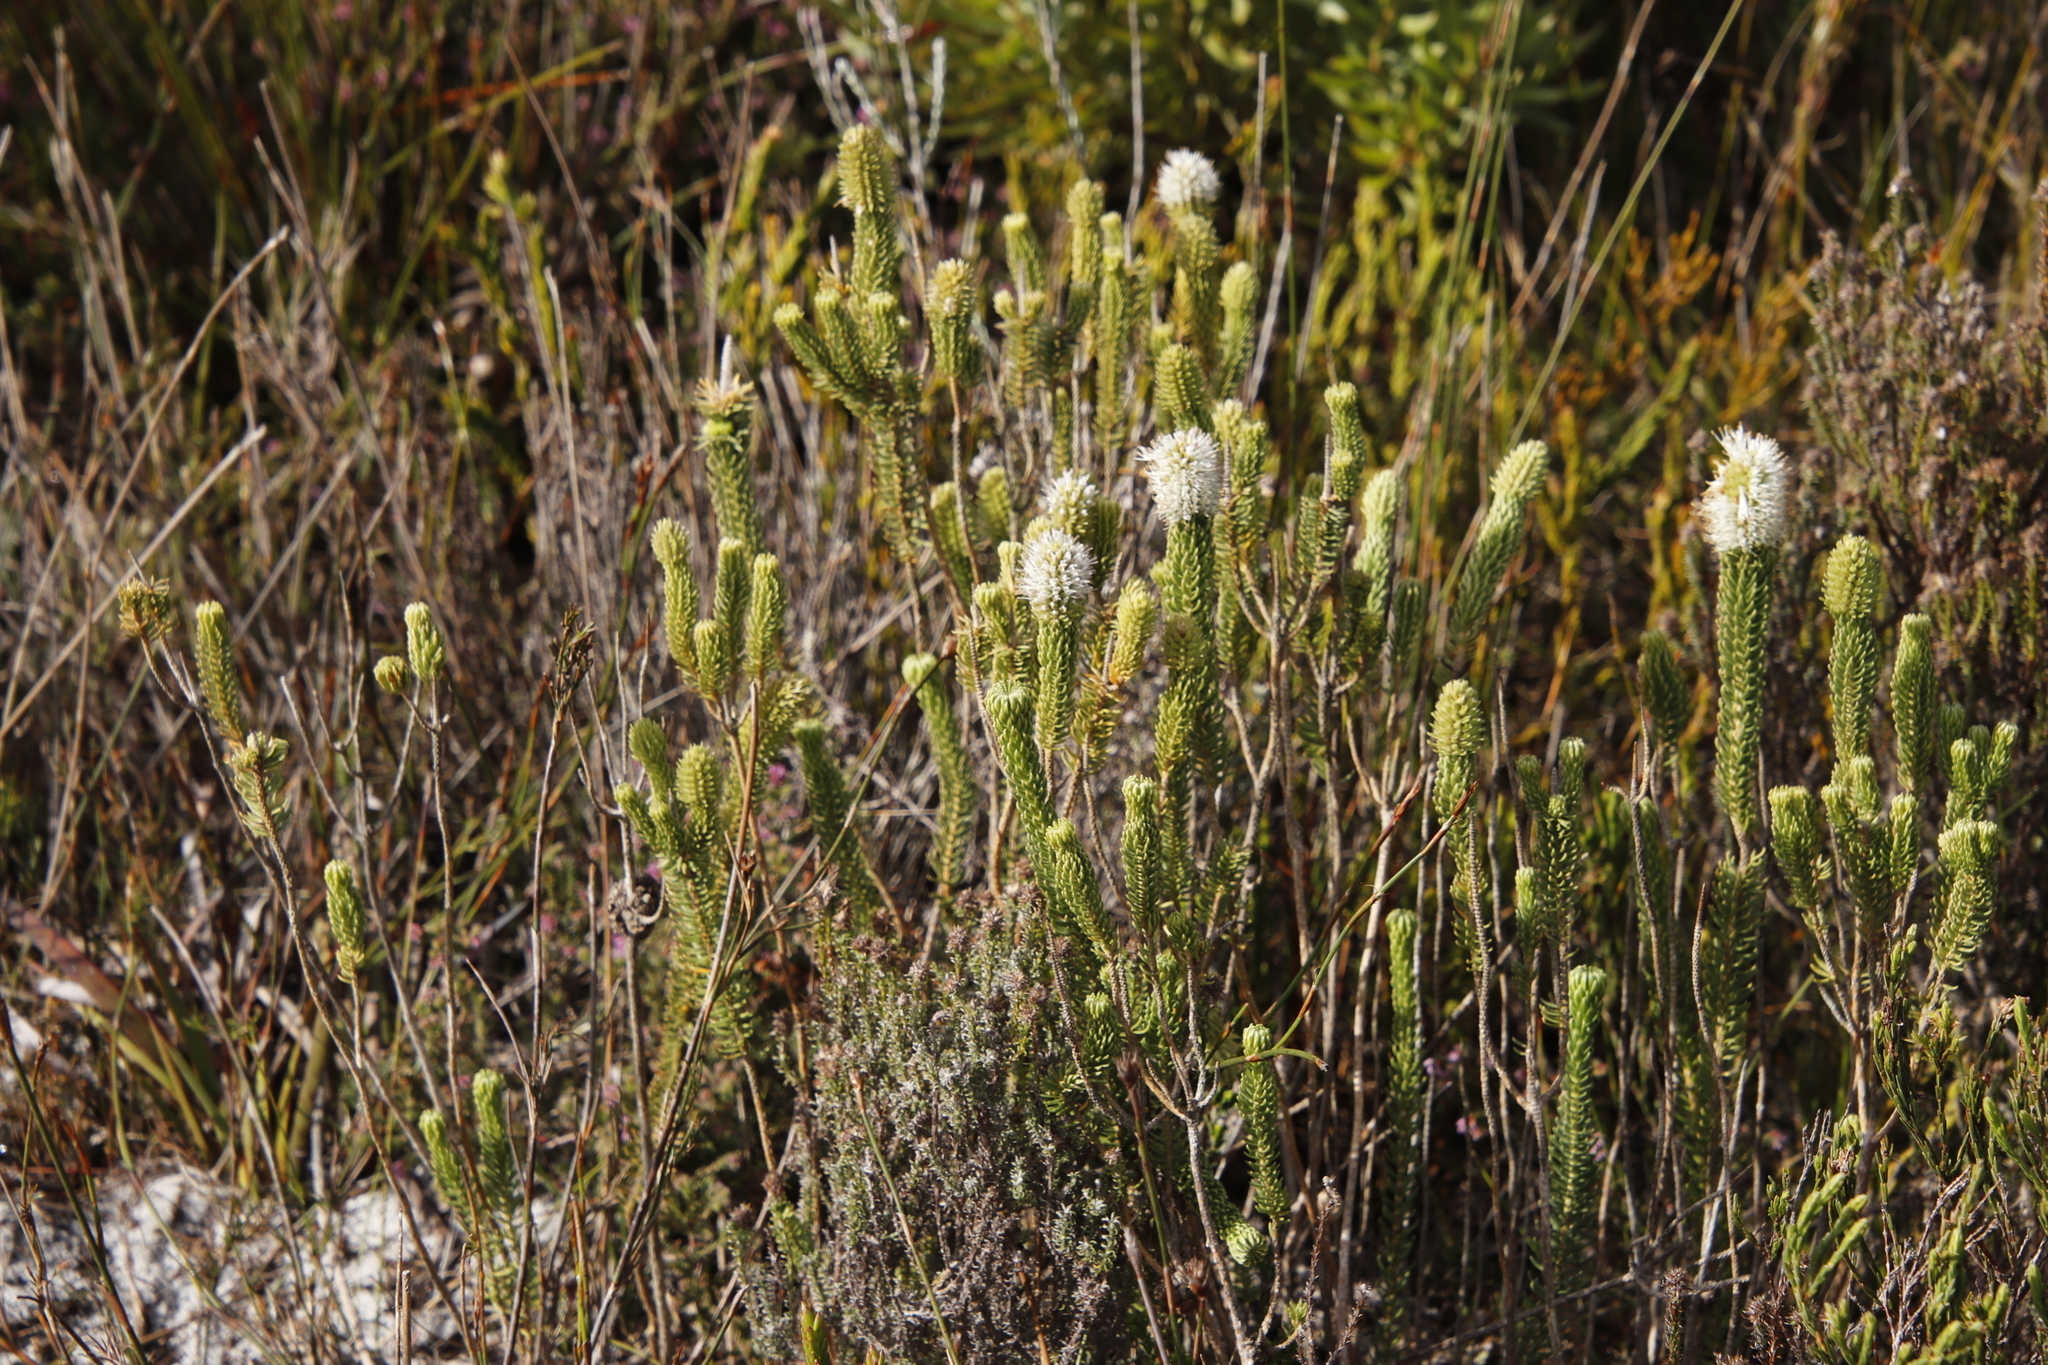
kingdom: Plantae
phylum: Tracheophyta
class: Magnoliopsida
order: Lamiales
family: Stilbaceae
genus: Stilbe
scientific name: Stilbe vestita
